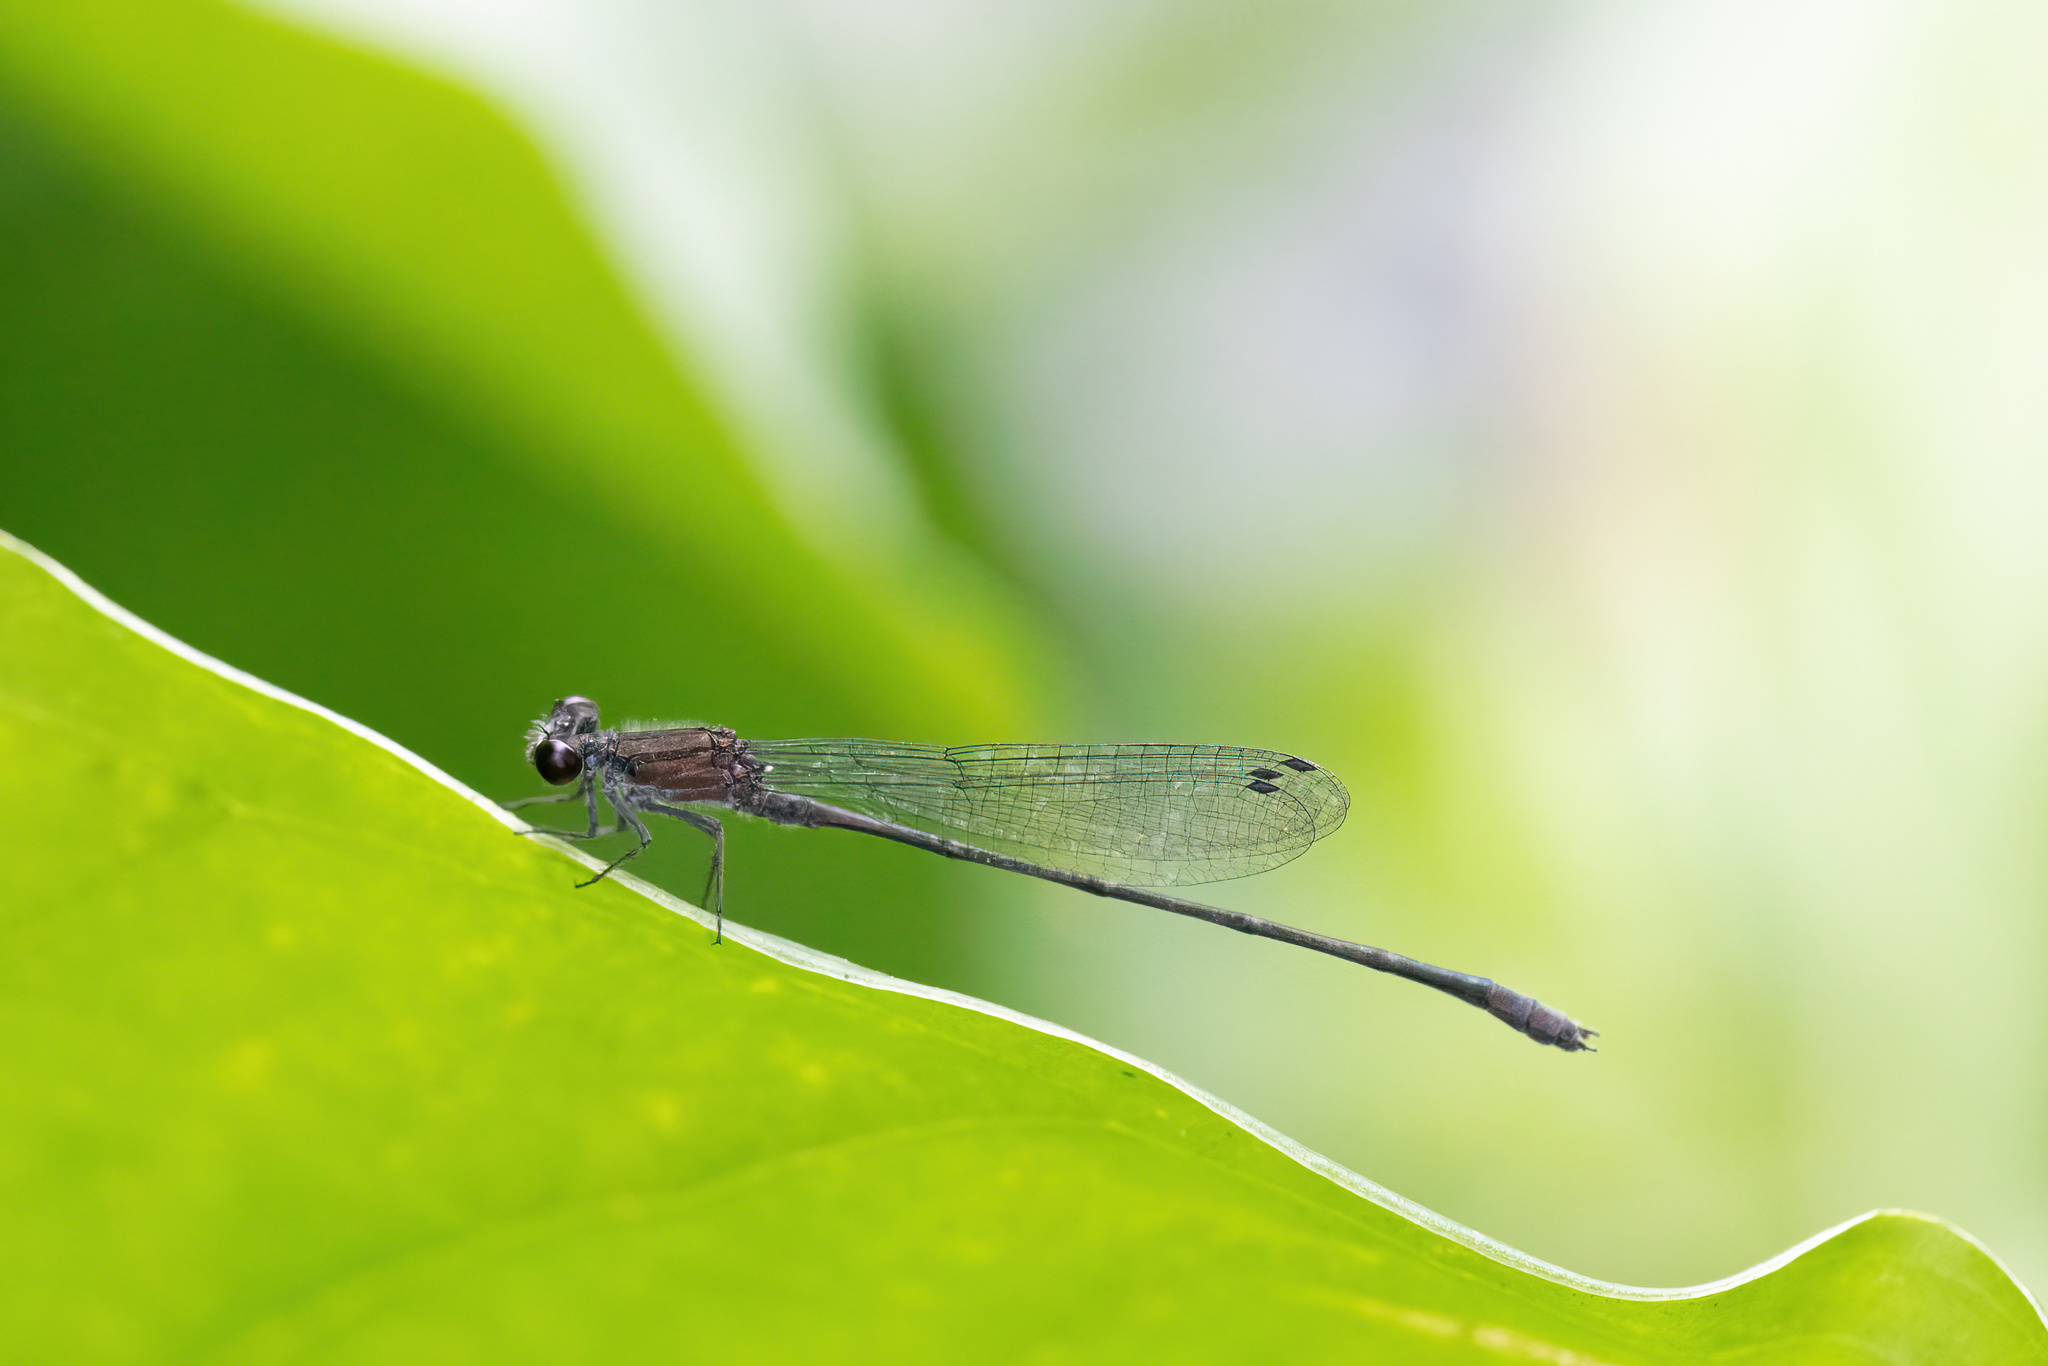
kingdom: Animalia
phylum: Arthropoda
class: Insecta
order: Odonata
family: Coenagrionidae
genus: Enallagma
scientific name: Enallagma cardenium
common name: Purple bluet
